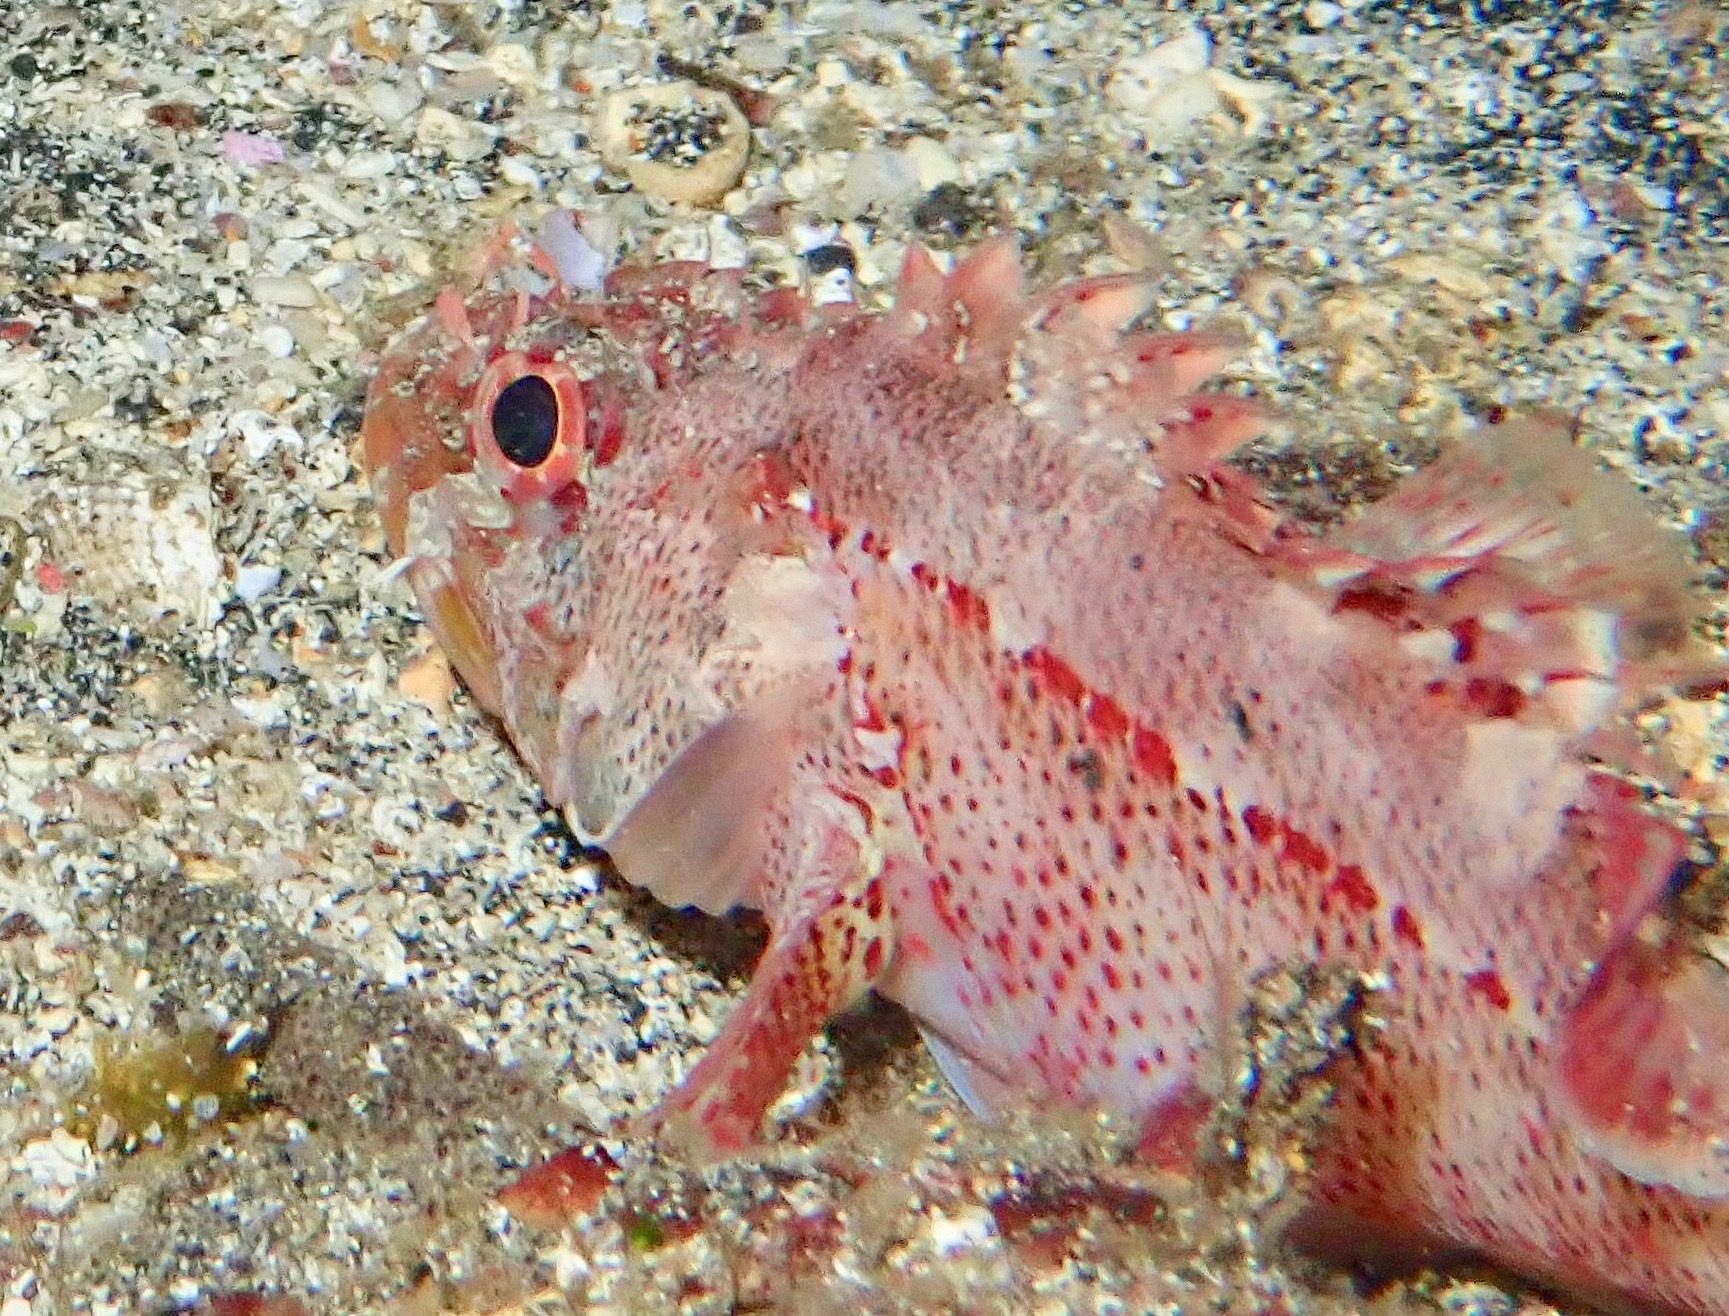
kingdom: Animalia
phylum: Chordata
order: Scorpaeniformes
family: Scorpaenidae
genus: Scorpaenodes
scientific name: Scorpaenodes xyris
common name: Rainbow scorpionfish
